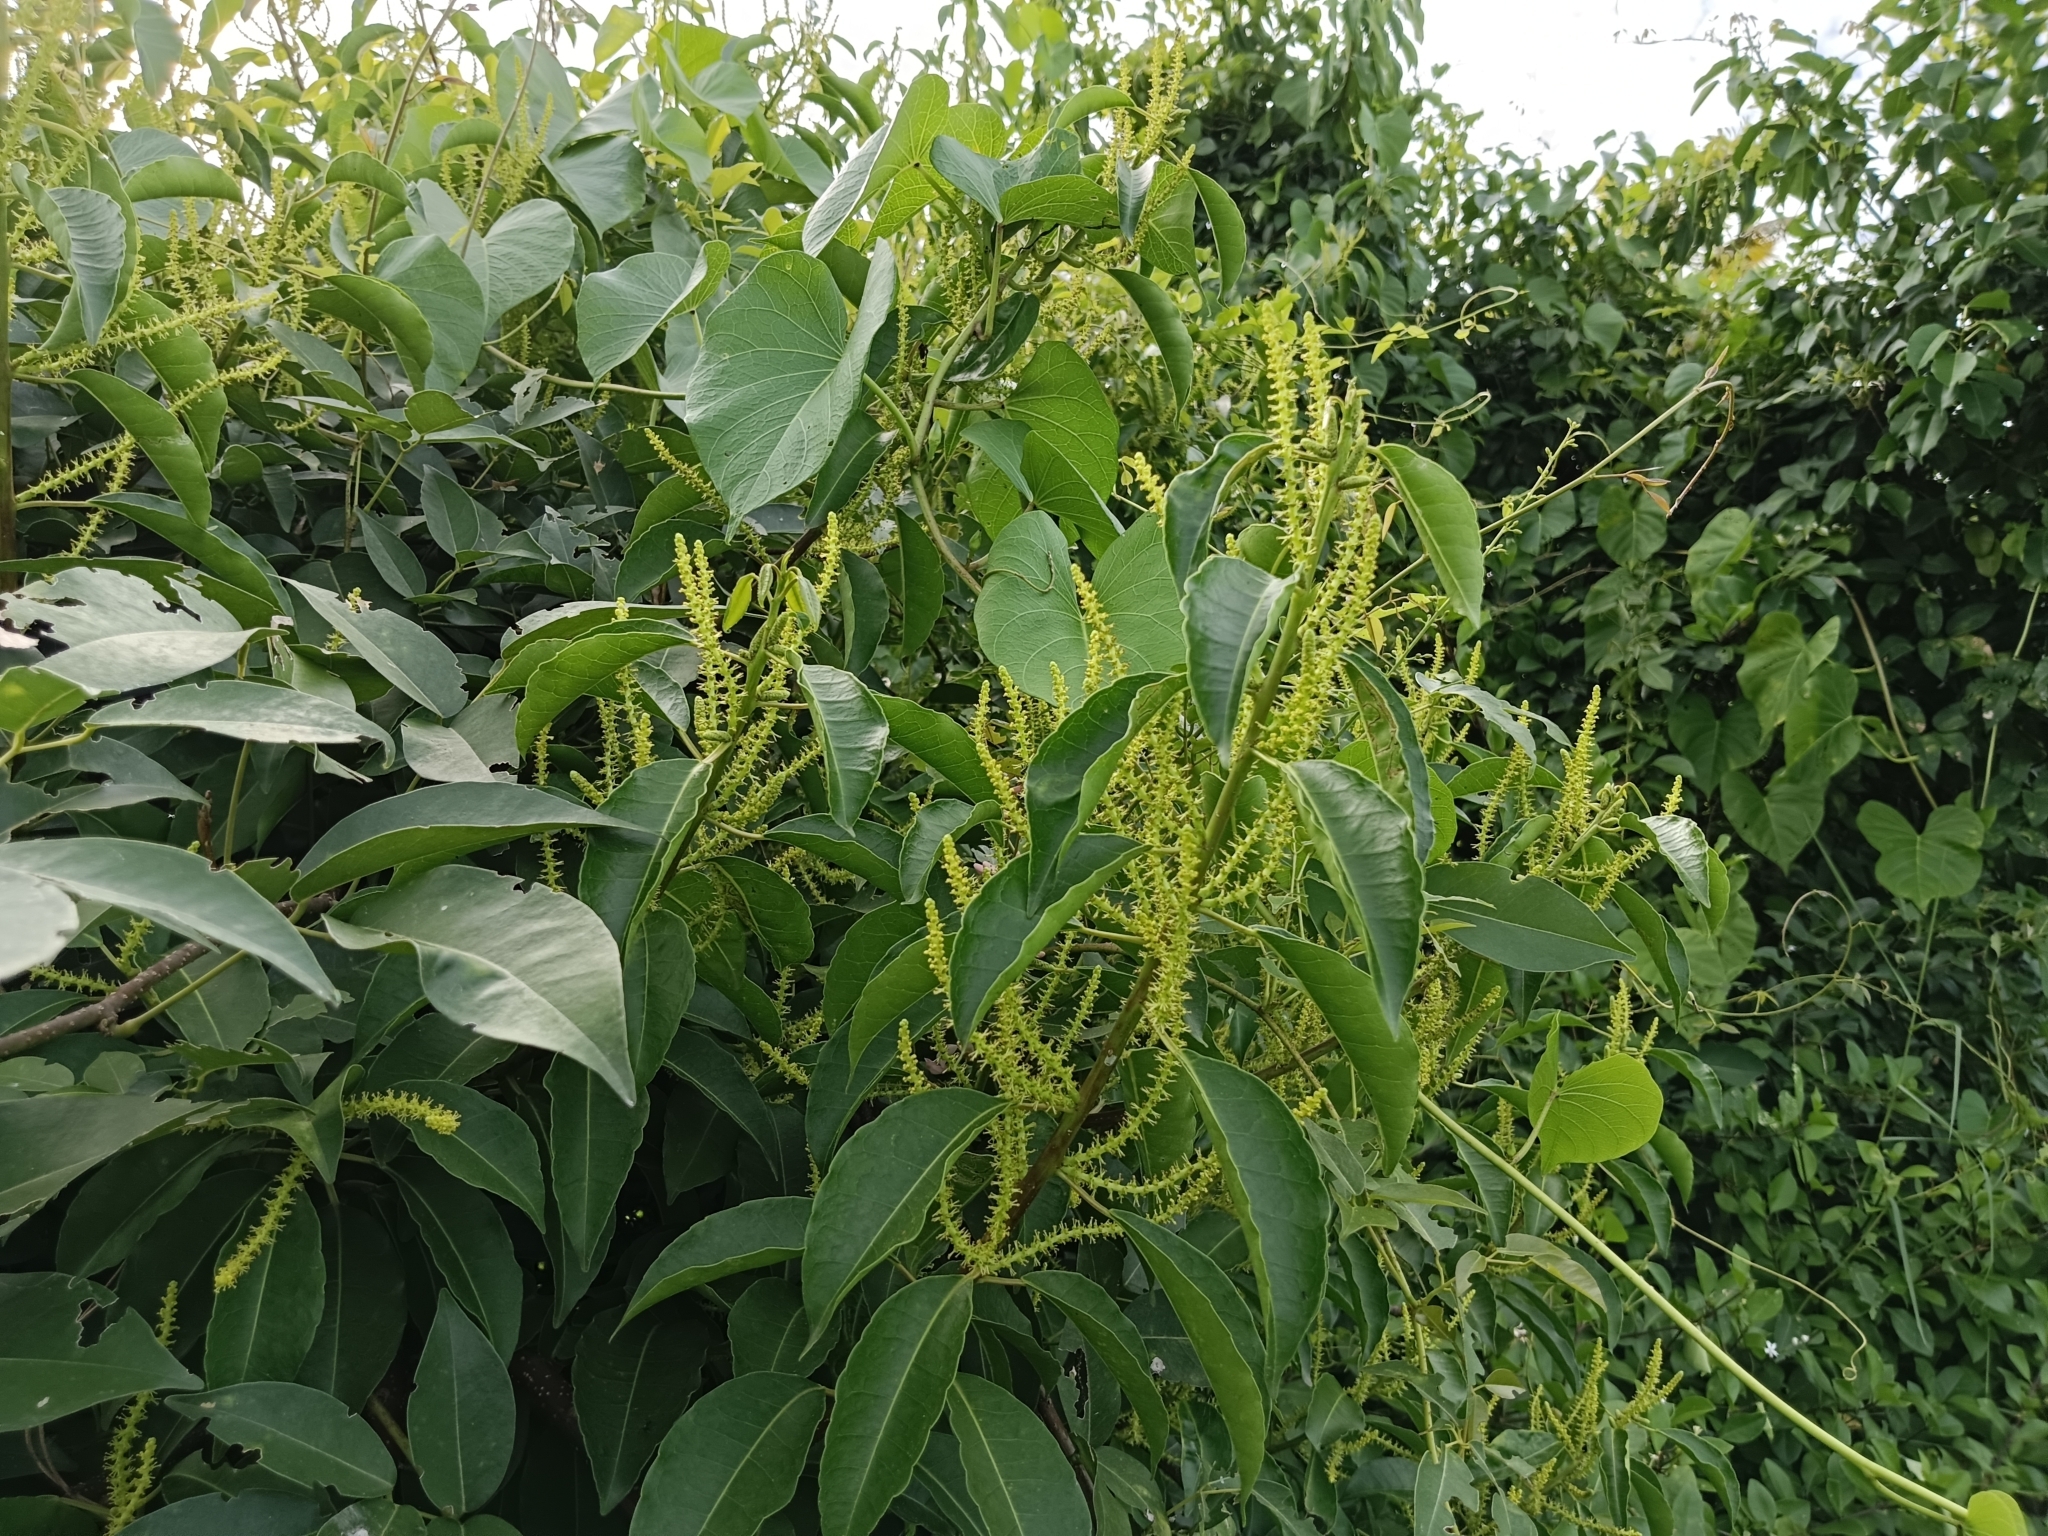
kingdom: Plantae
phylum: Tracheophyta
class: Magnoliopsida
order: Malpighiales
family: Euphorbiaceae
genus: Excoecaria
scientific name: Excoecaria agallocha
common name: River poisontree
